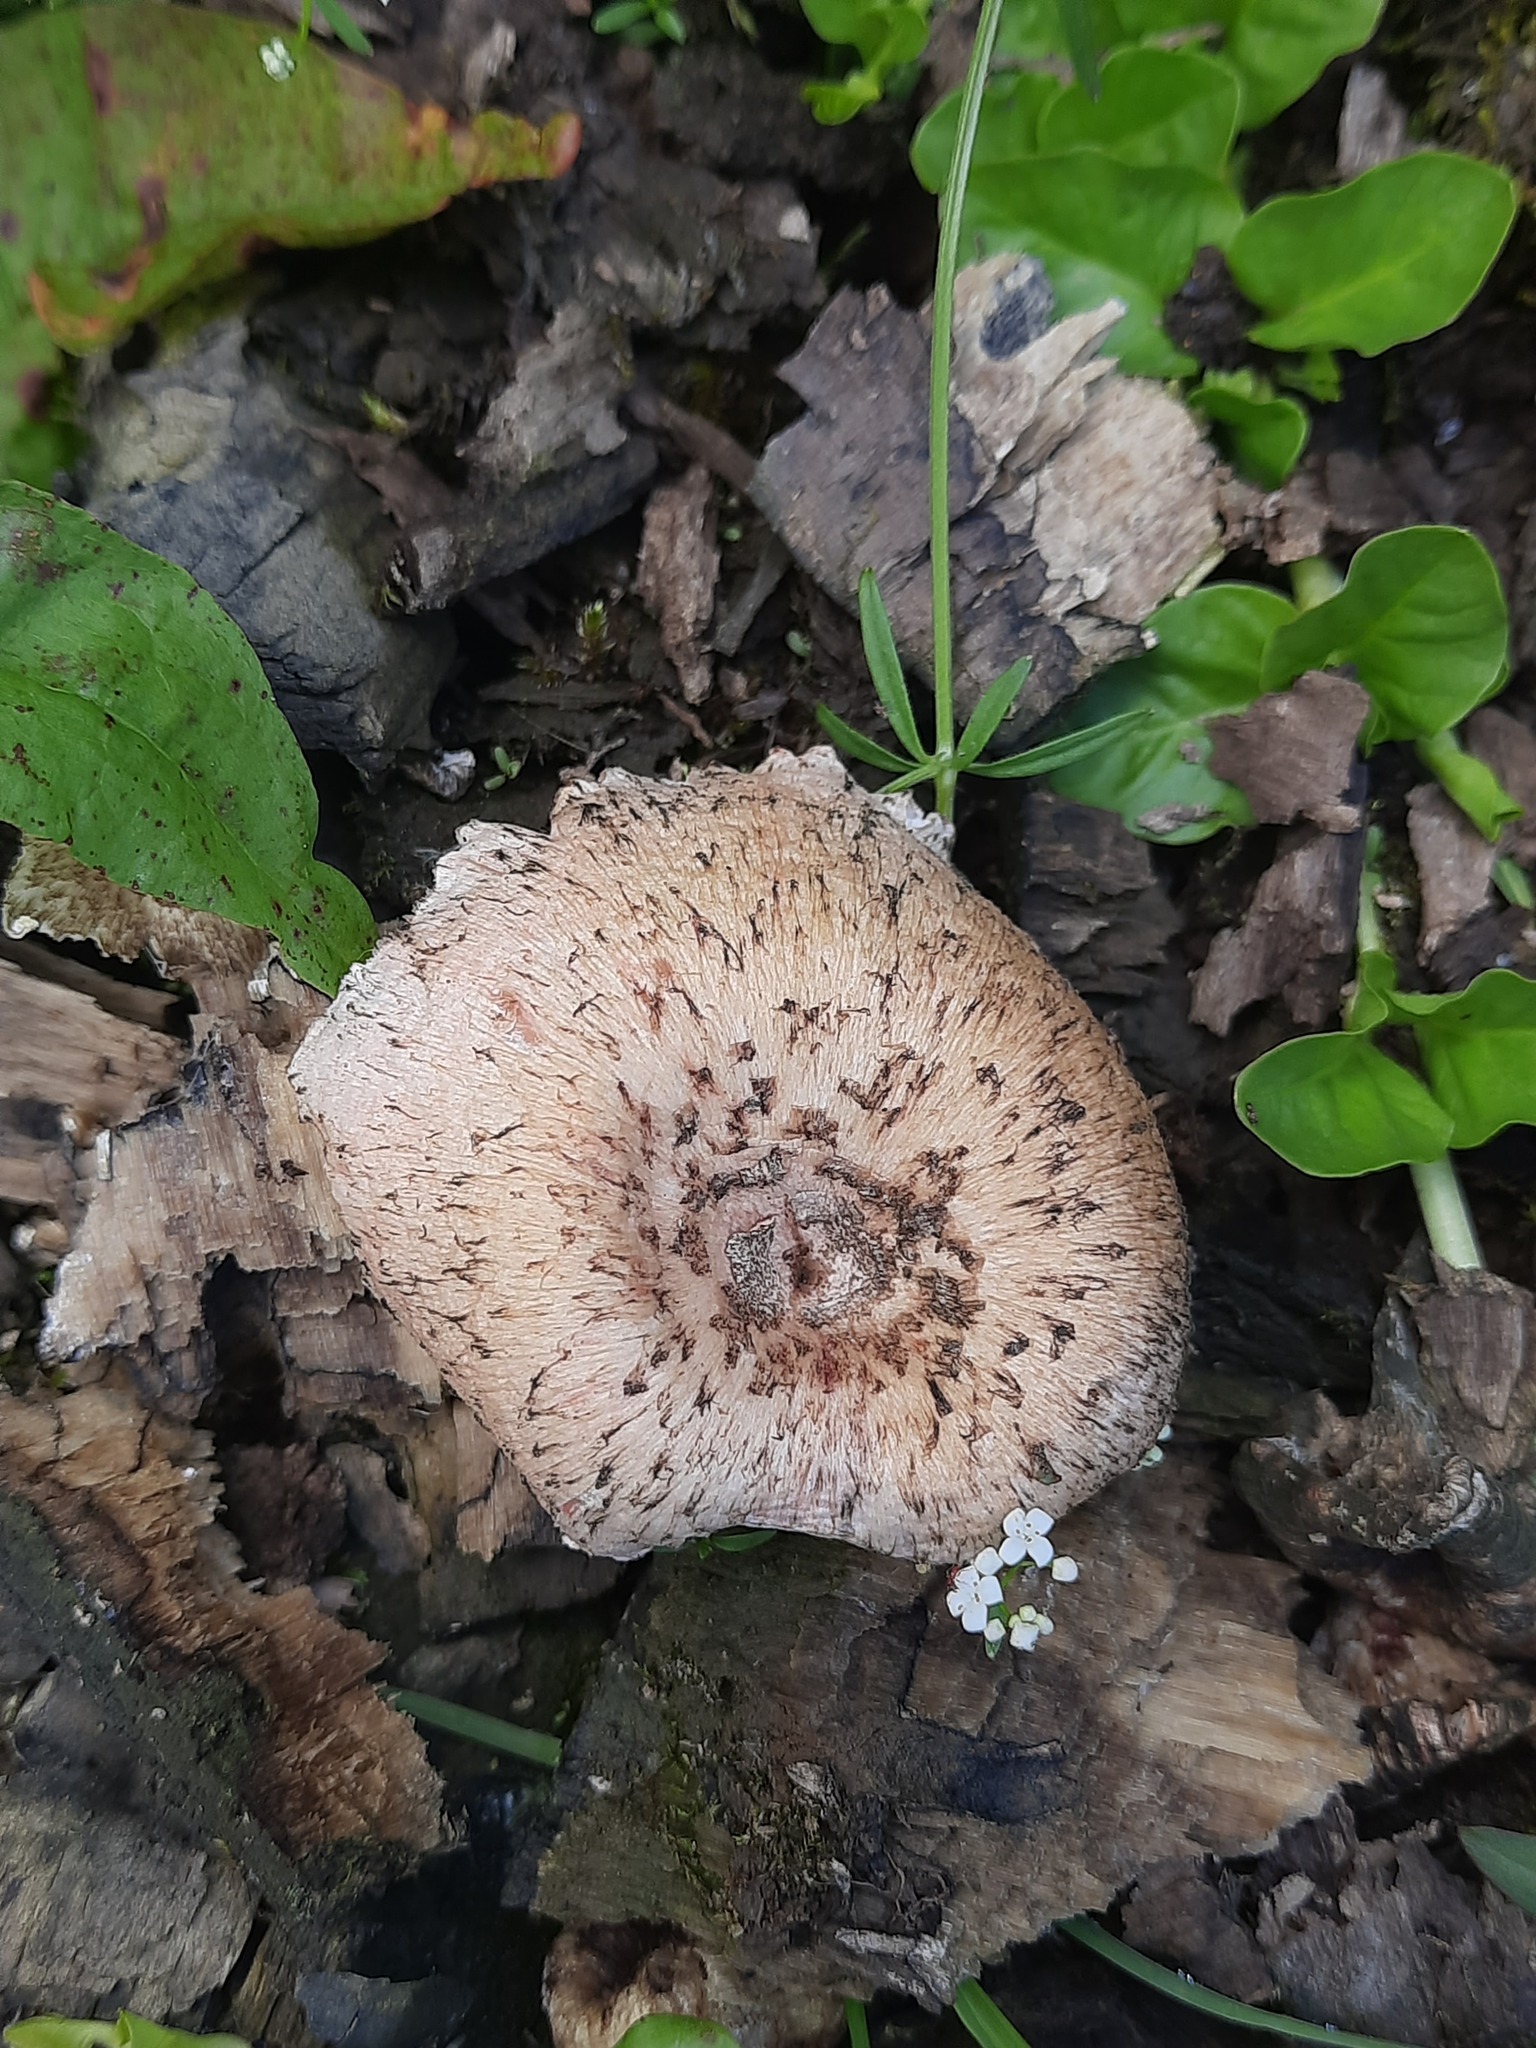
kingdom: Fungi
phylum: Basidiomycota
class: Agaricomycetes
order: Polyporales
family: Polyporaceae
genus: Lentinus
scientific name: Lentinus tigrinus
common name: Tiger sawgill
